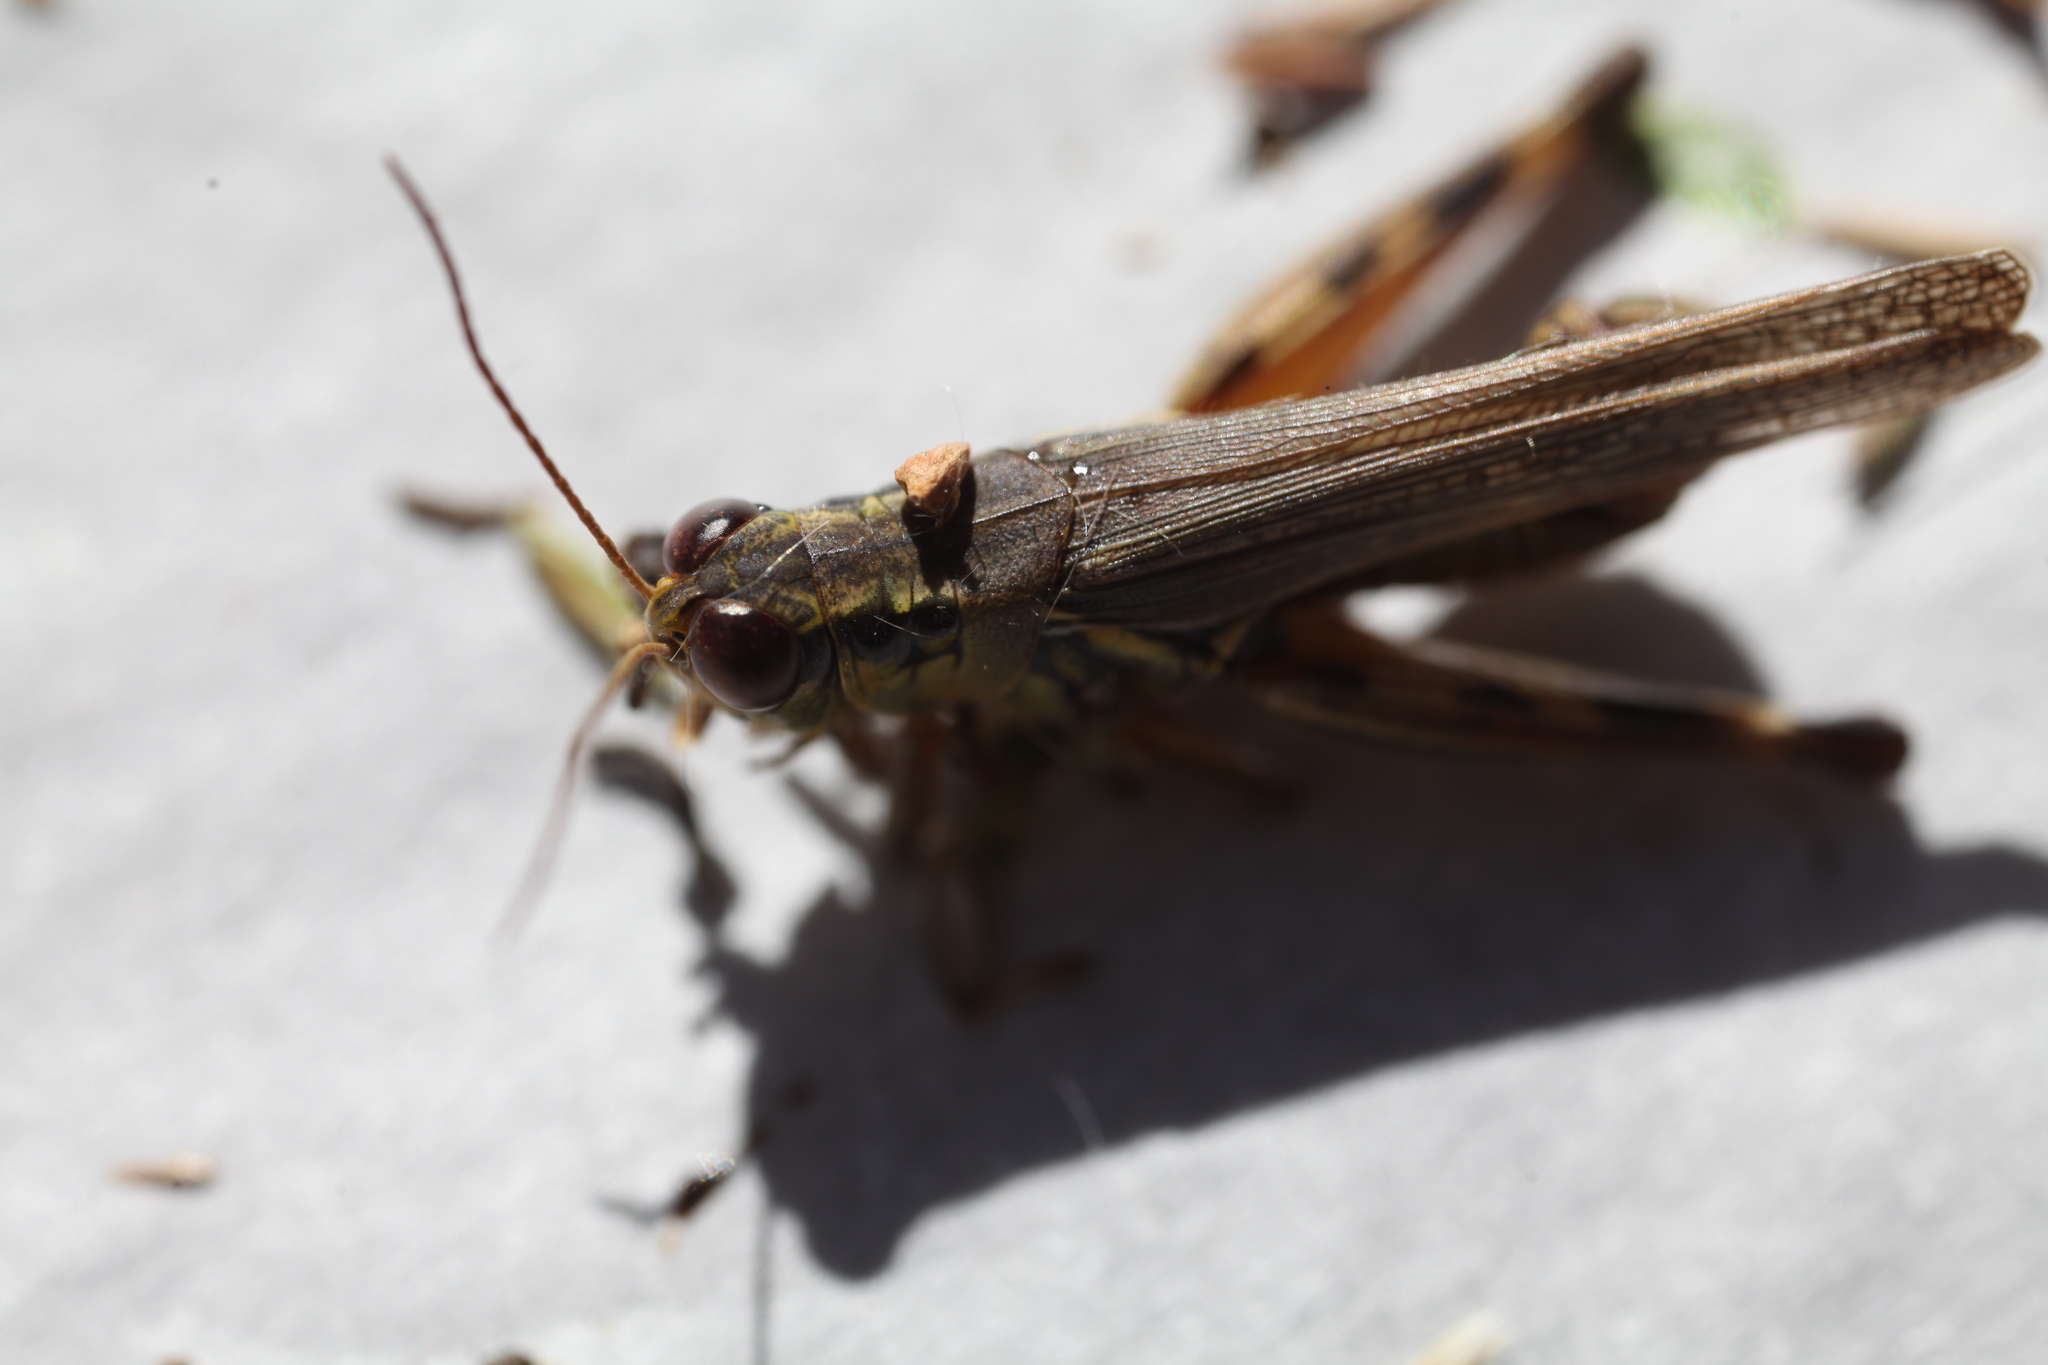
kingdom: Animalia
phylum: Arthropoda
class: Insecta
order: Orthoptera
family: Acrididae
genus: Melanoplus
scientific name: Melanoplus femurrubrum
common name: Red-legged grasshopper
